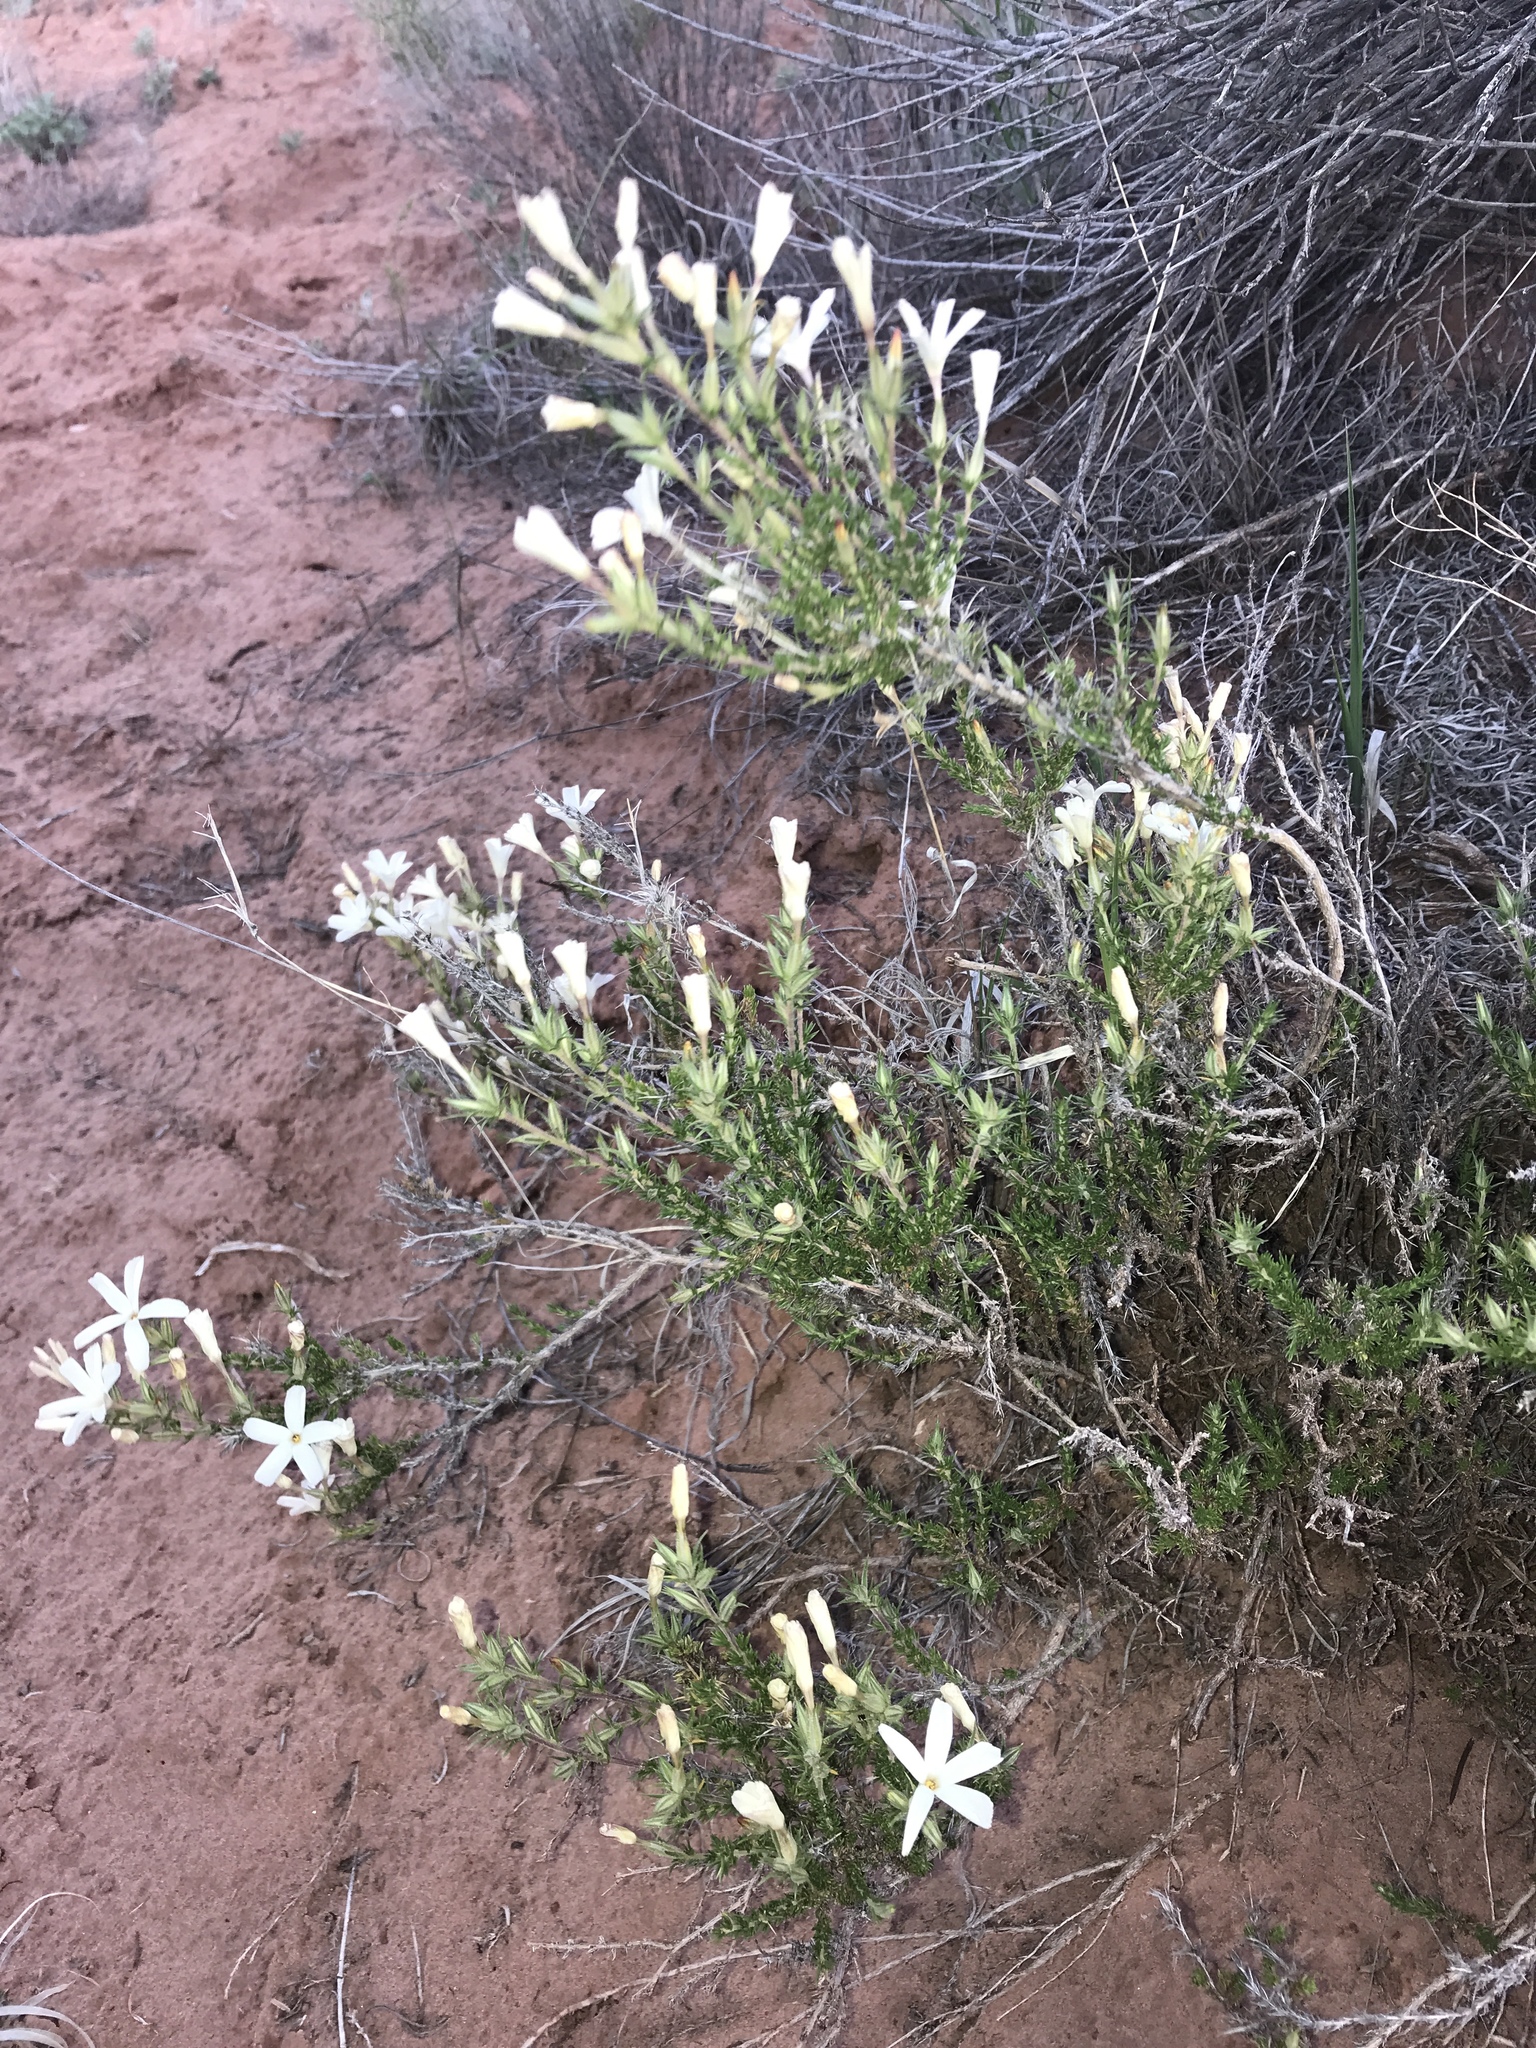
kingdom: Plantae
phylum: Tracheophyta
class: Magnoliopsida
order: Ericales
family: Polemoniaceae
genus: Linanthus
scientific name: Linanthus pungens
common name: Granite prickly phlox
